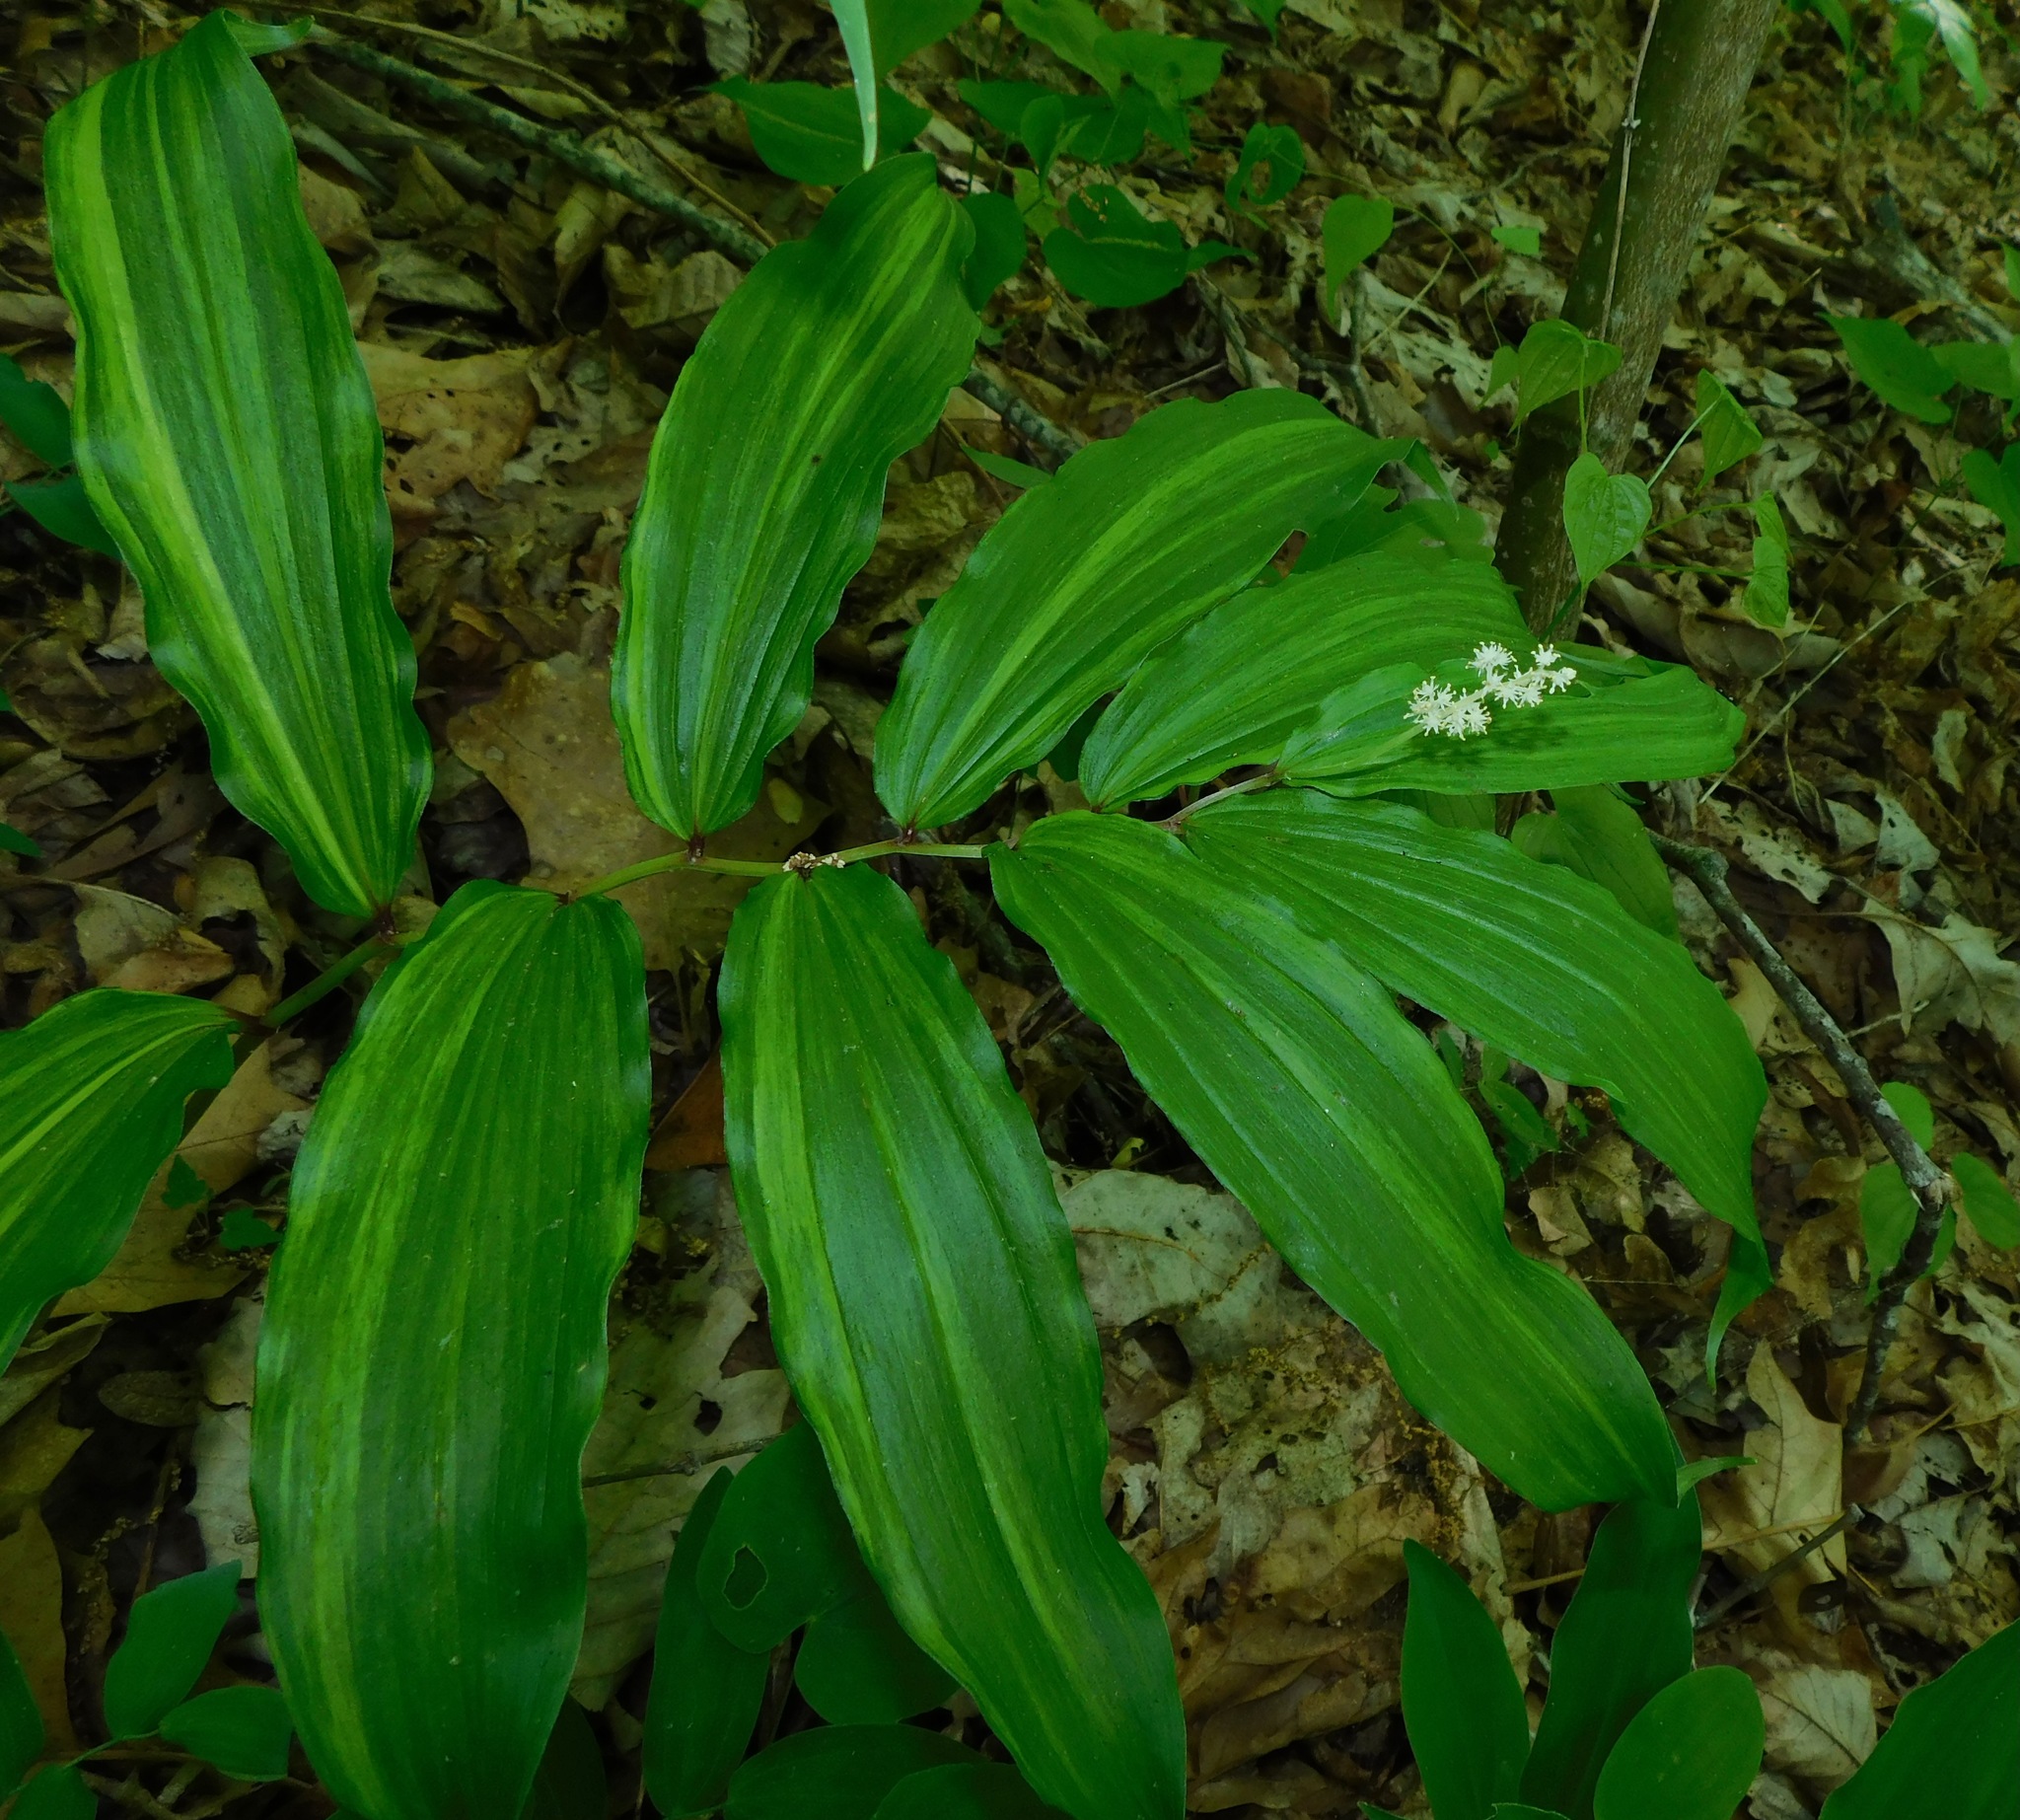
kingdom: Plantae
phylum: Tracheophyta
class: Liliopsida
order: Asparagales
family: Asparagaceae
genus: Maianthemum
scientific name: Maianthemum racemosum
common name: False spikenard
